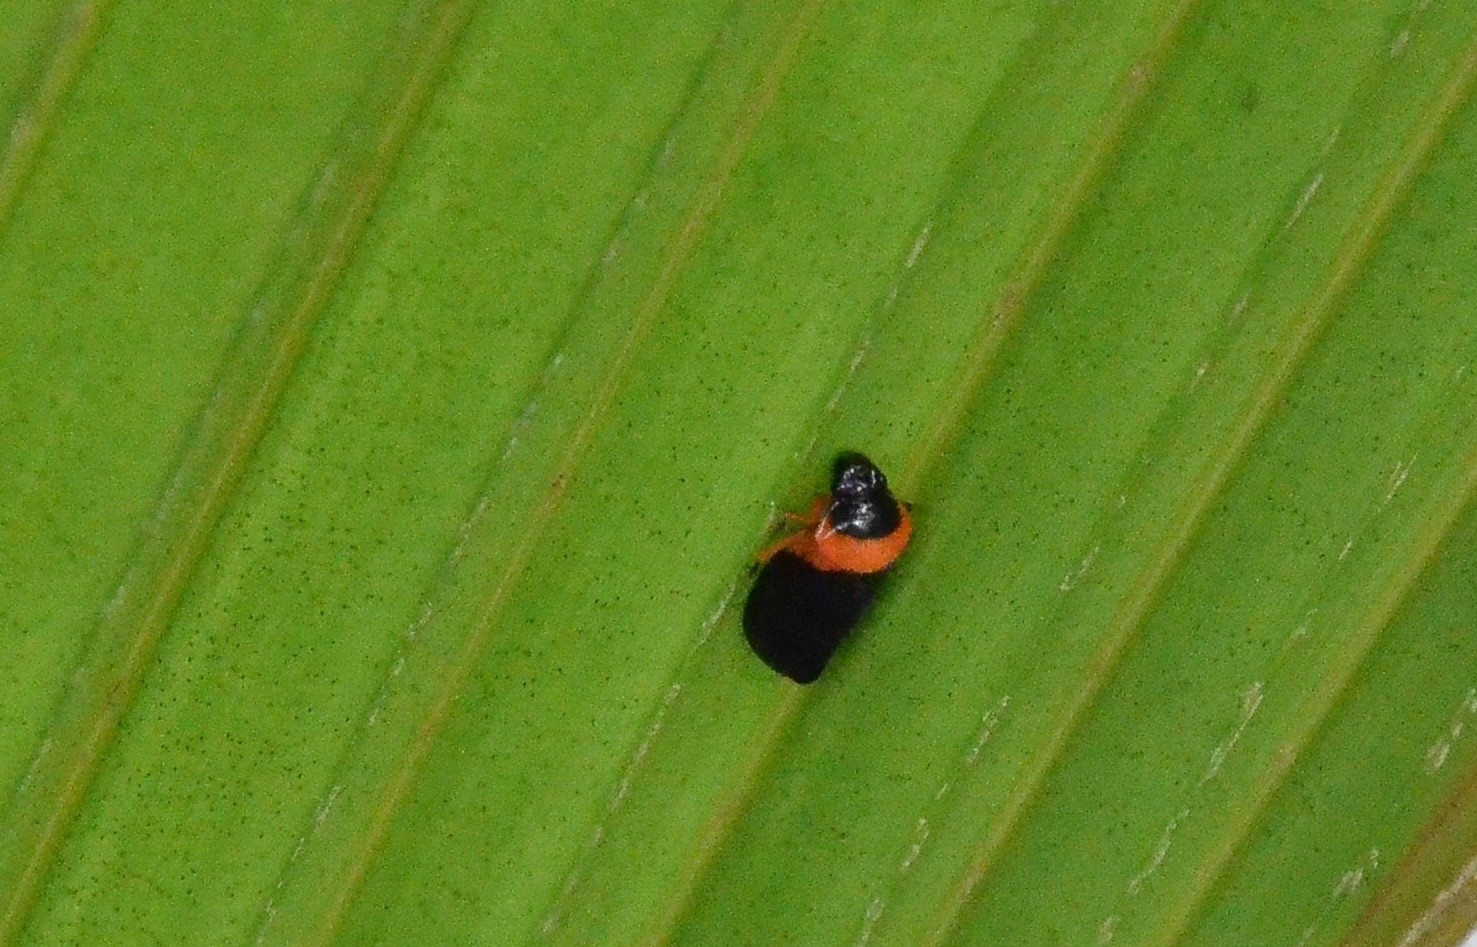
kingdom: Animalia
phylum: Arthropoda
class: Insecta
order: Hemiptera
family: Cercopidae
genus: Phymatostetha
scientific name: Phymatostetha deschampsi
